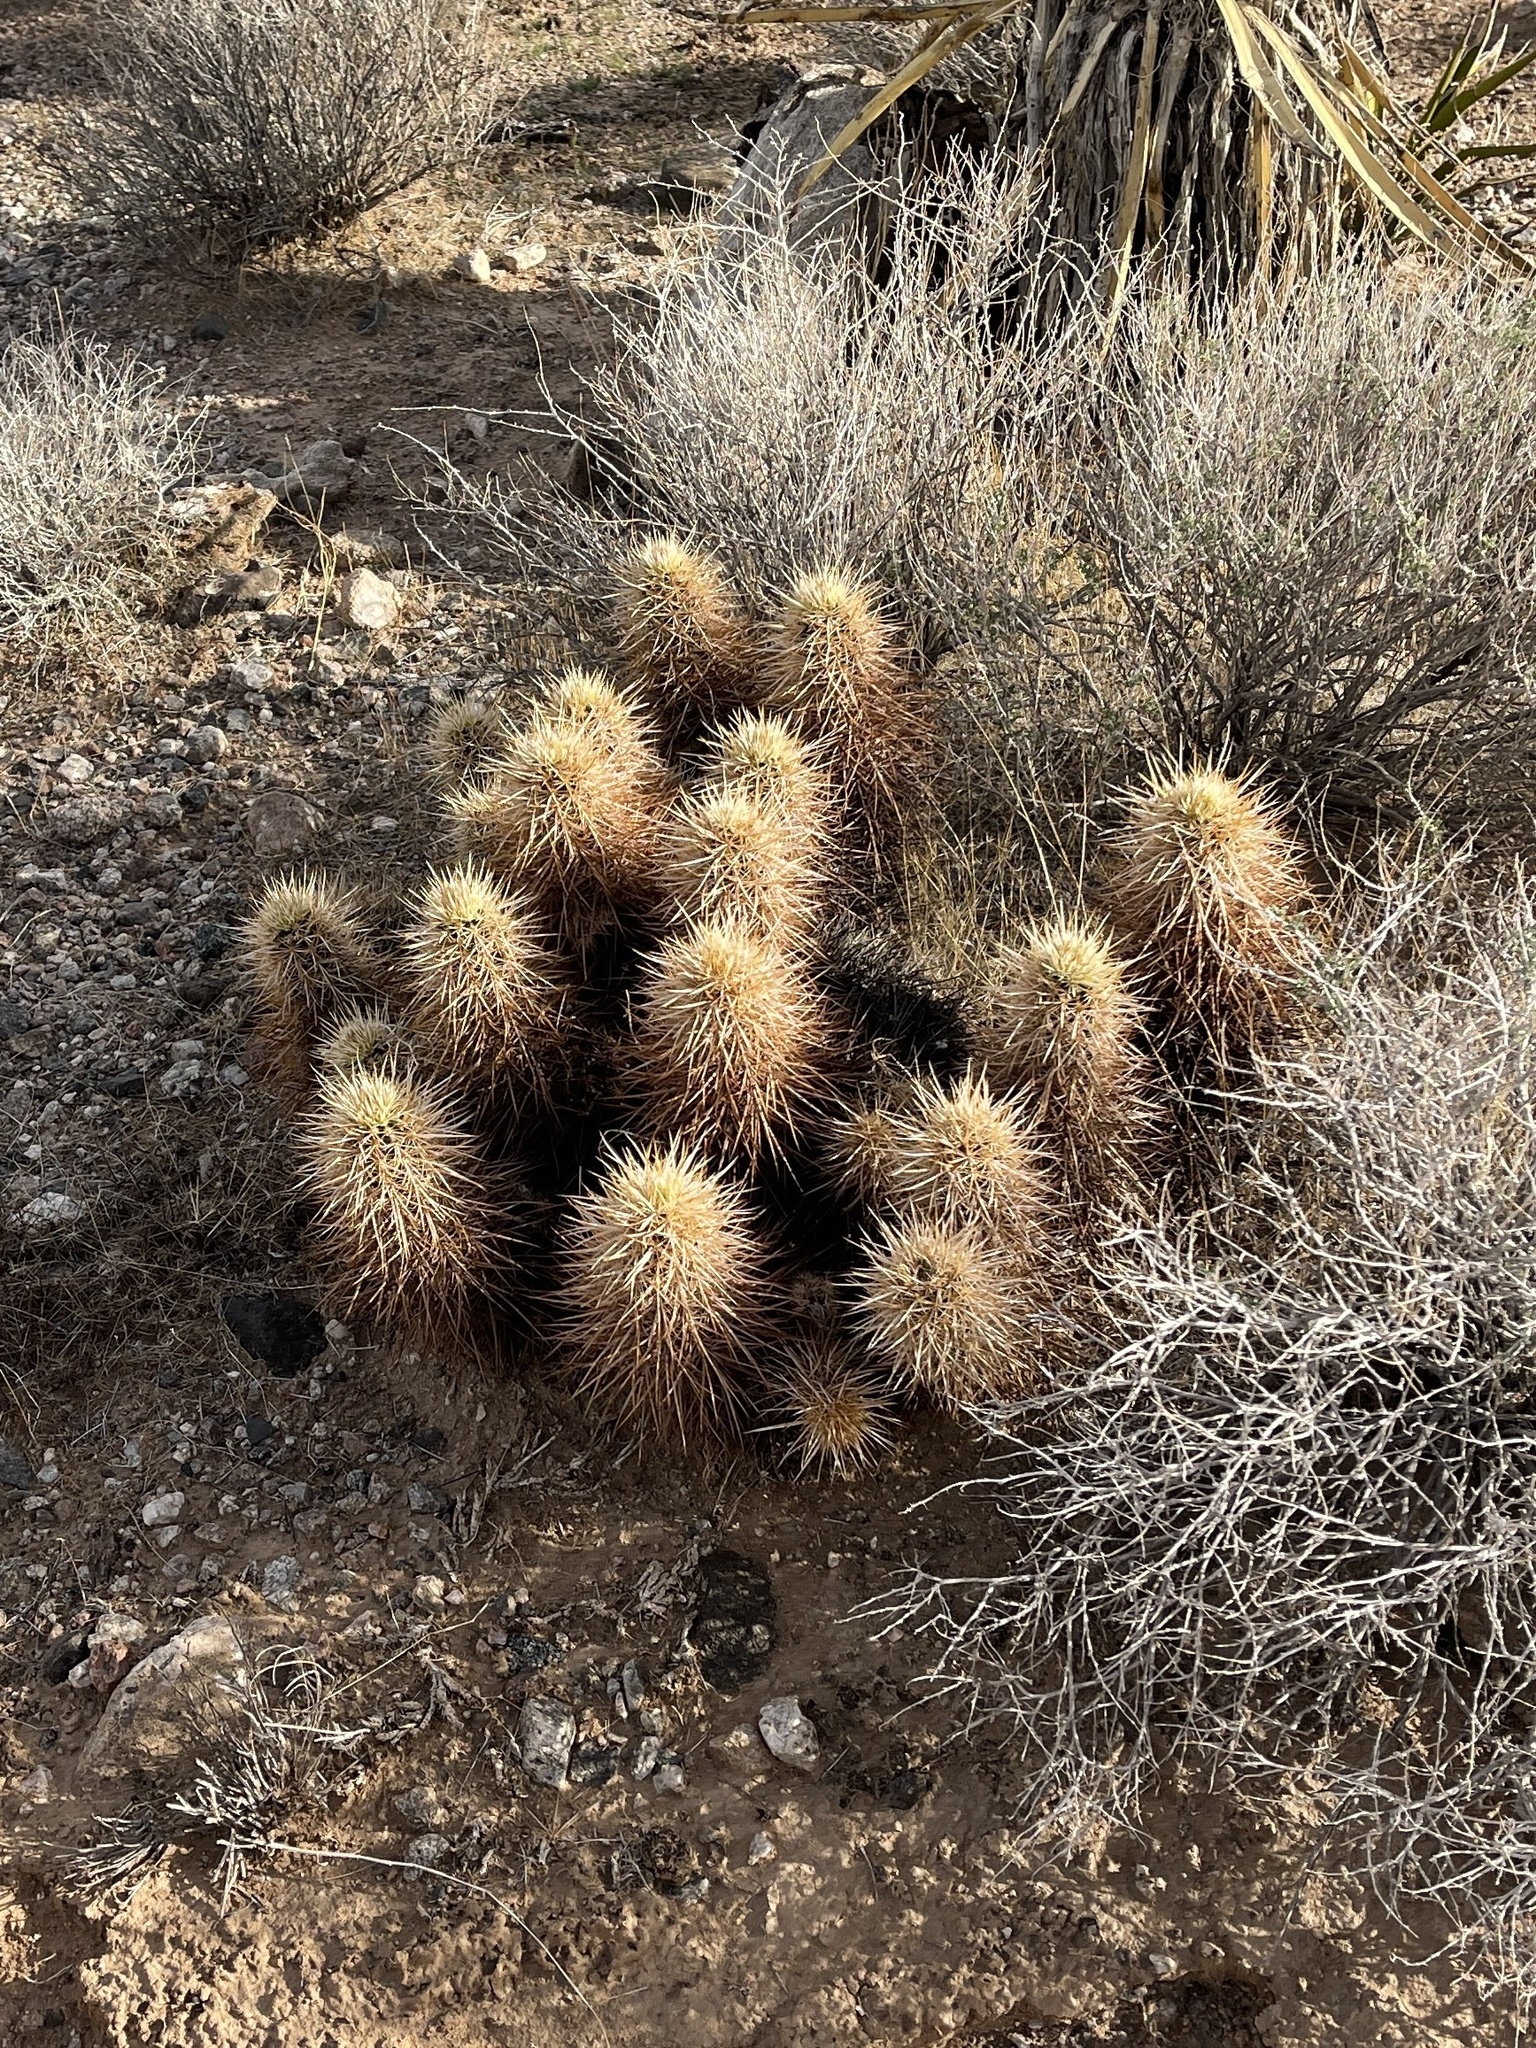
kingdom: Plantae
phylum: Tracheophyta
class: Magnoliopsida
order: Caryophyllales
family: Cactaceae
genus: Echinocereus
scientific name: Echinocereus engelmannii
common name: Engelmann's hedgehog cactus
